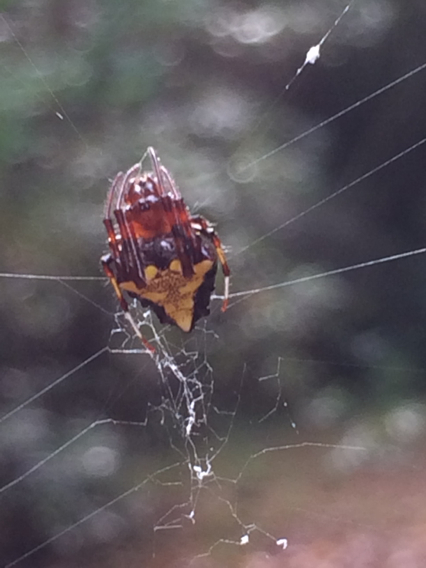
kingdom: Animalia
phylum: Arthropoda
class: Arachnida
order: Araneae
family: Araneidae
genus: Verrucosa
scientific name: Verrucosa arenata
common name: Orb weavers
